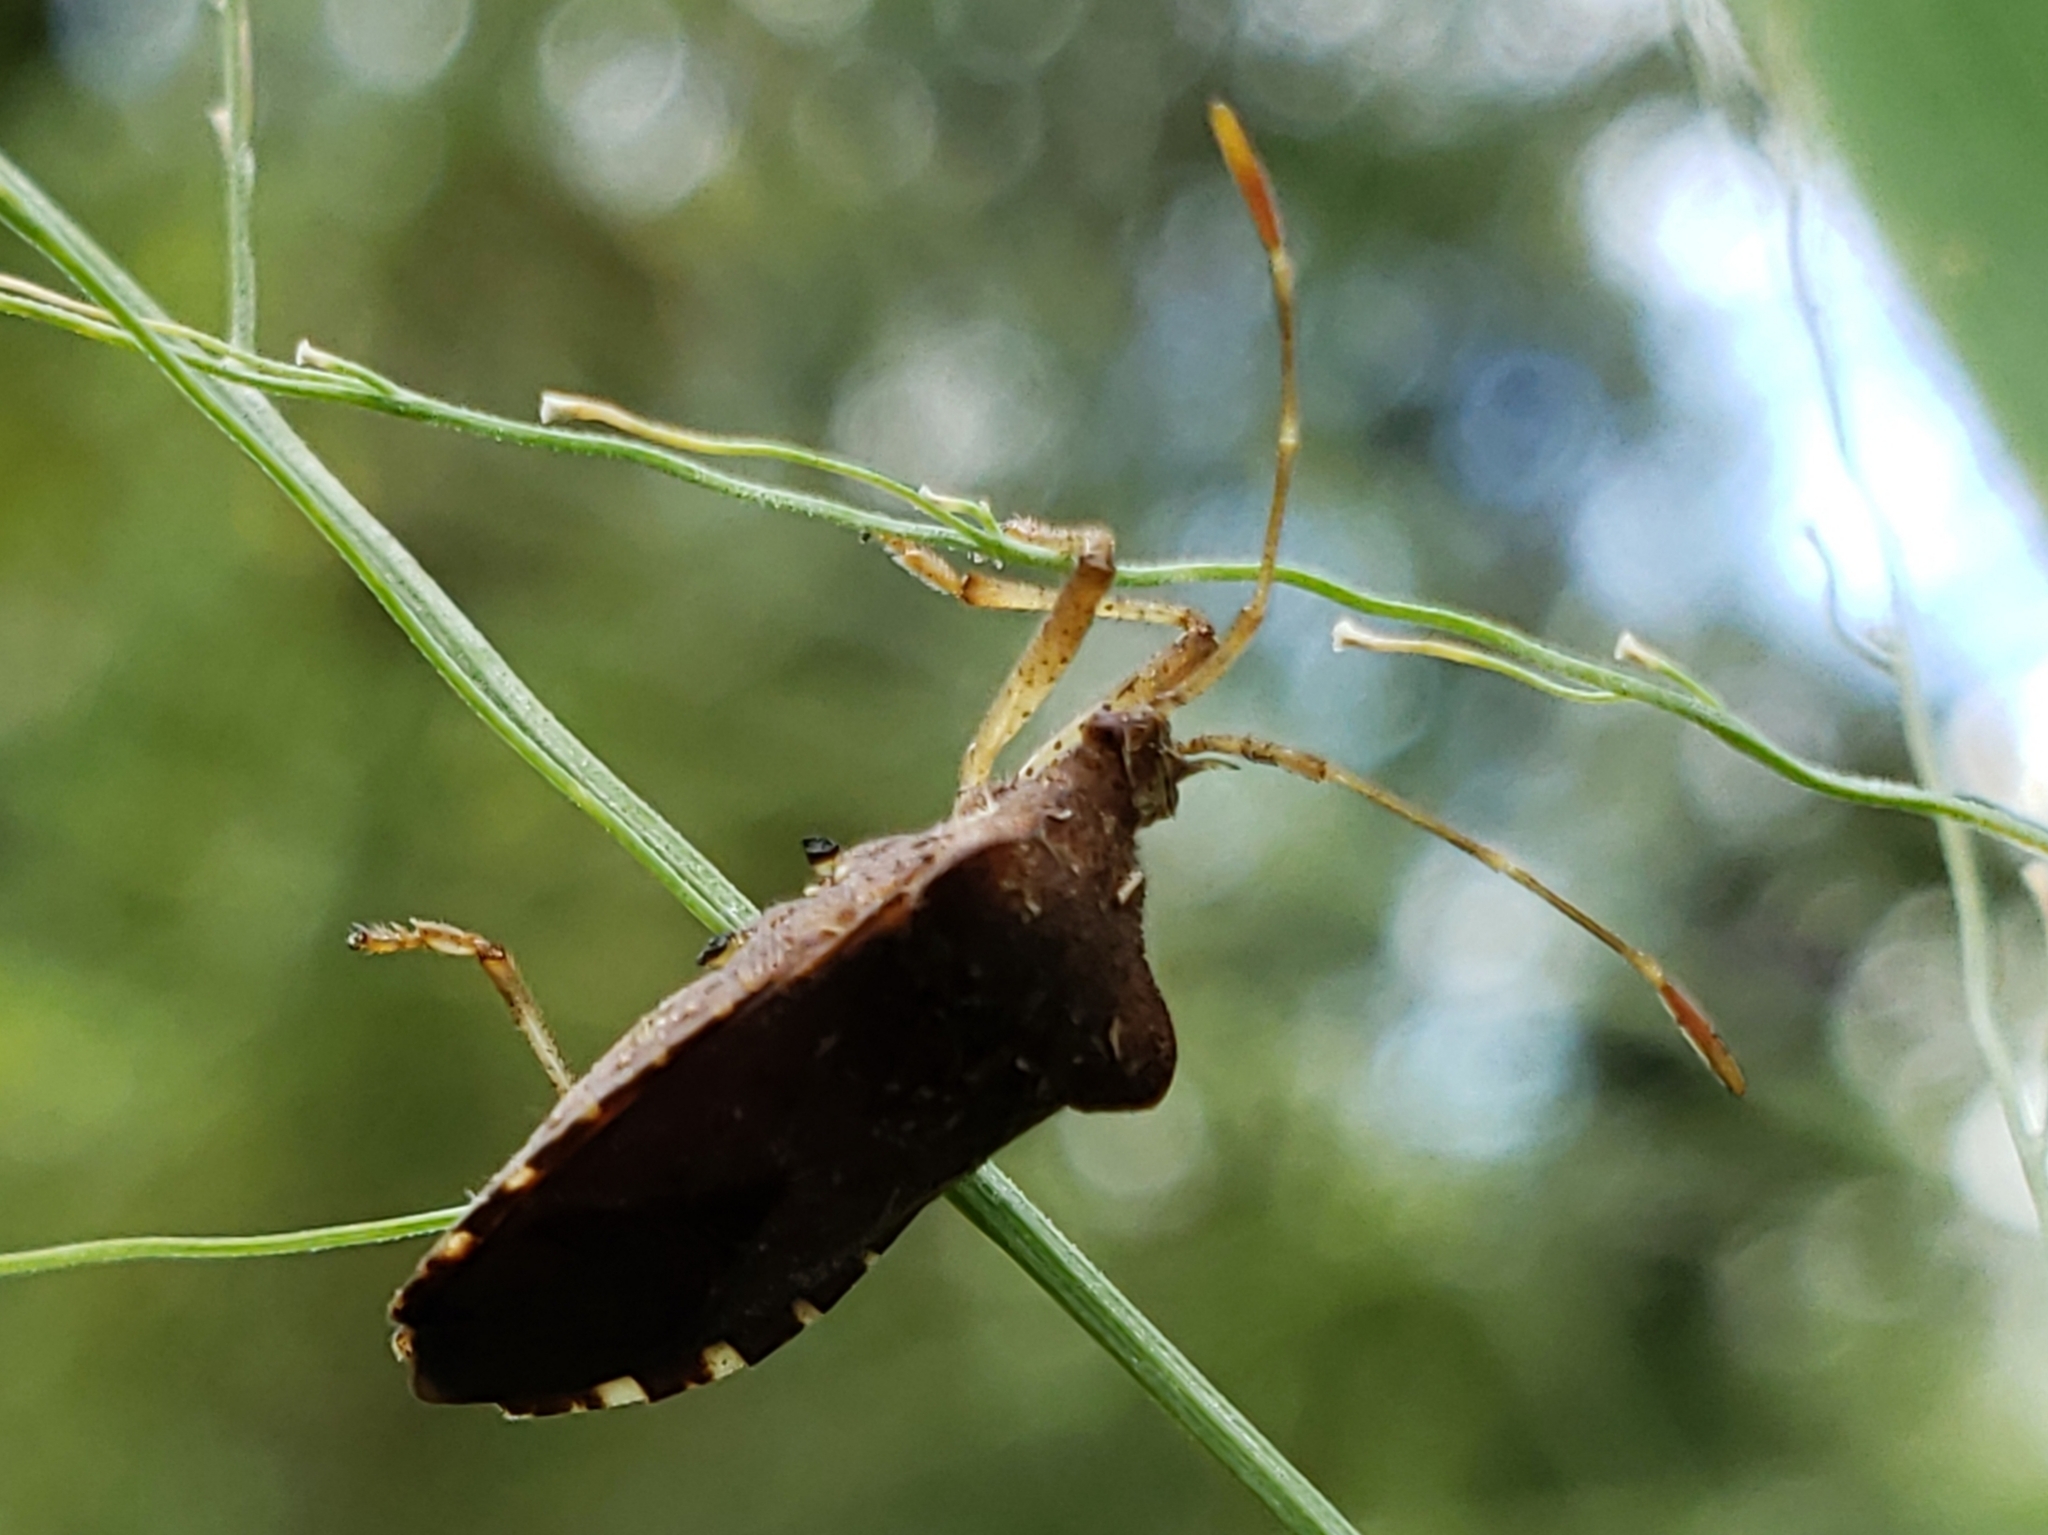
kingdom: Animalia
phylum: Arthropoda
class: Insecta
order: Hemiptera
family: Coreidae
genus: Anasa
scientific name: Anasa scorbutica
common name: Squash bug
